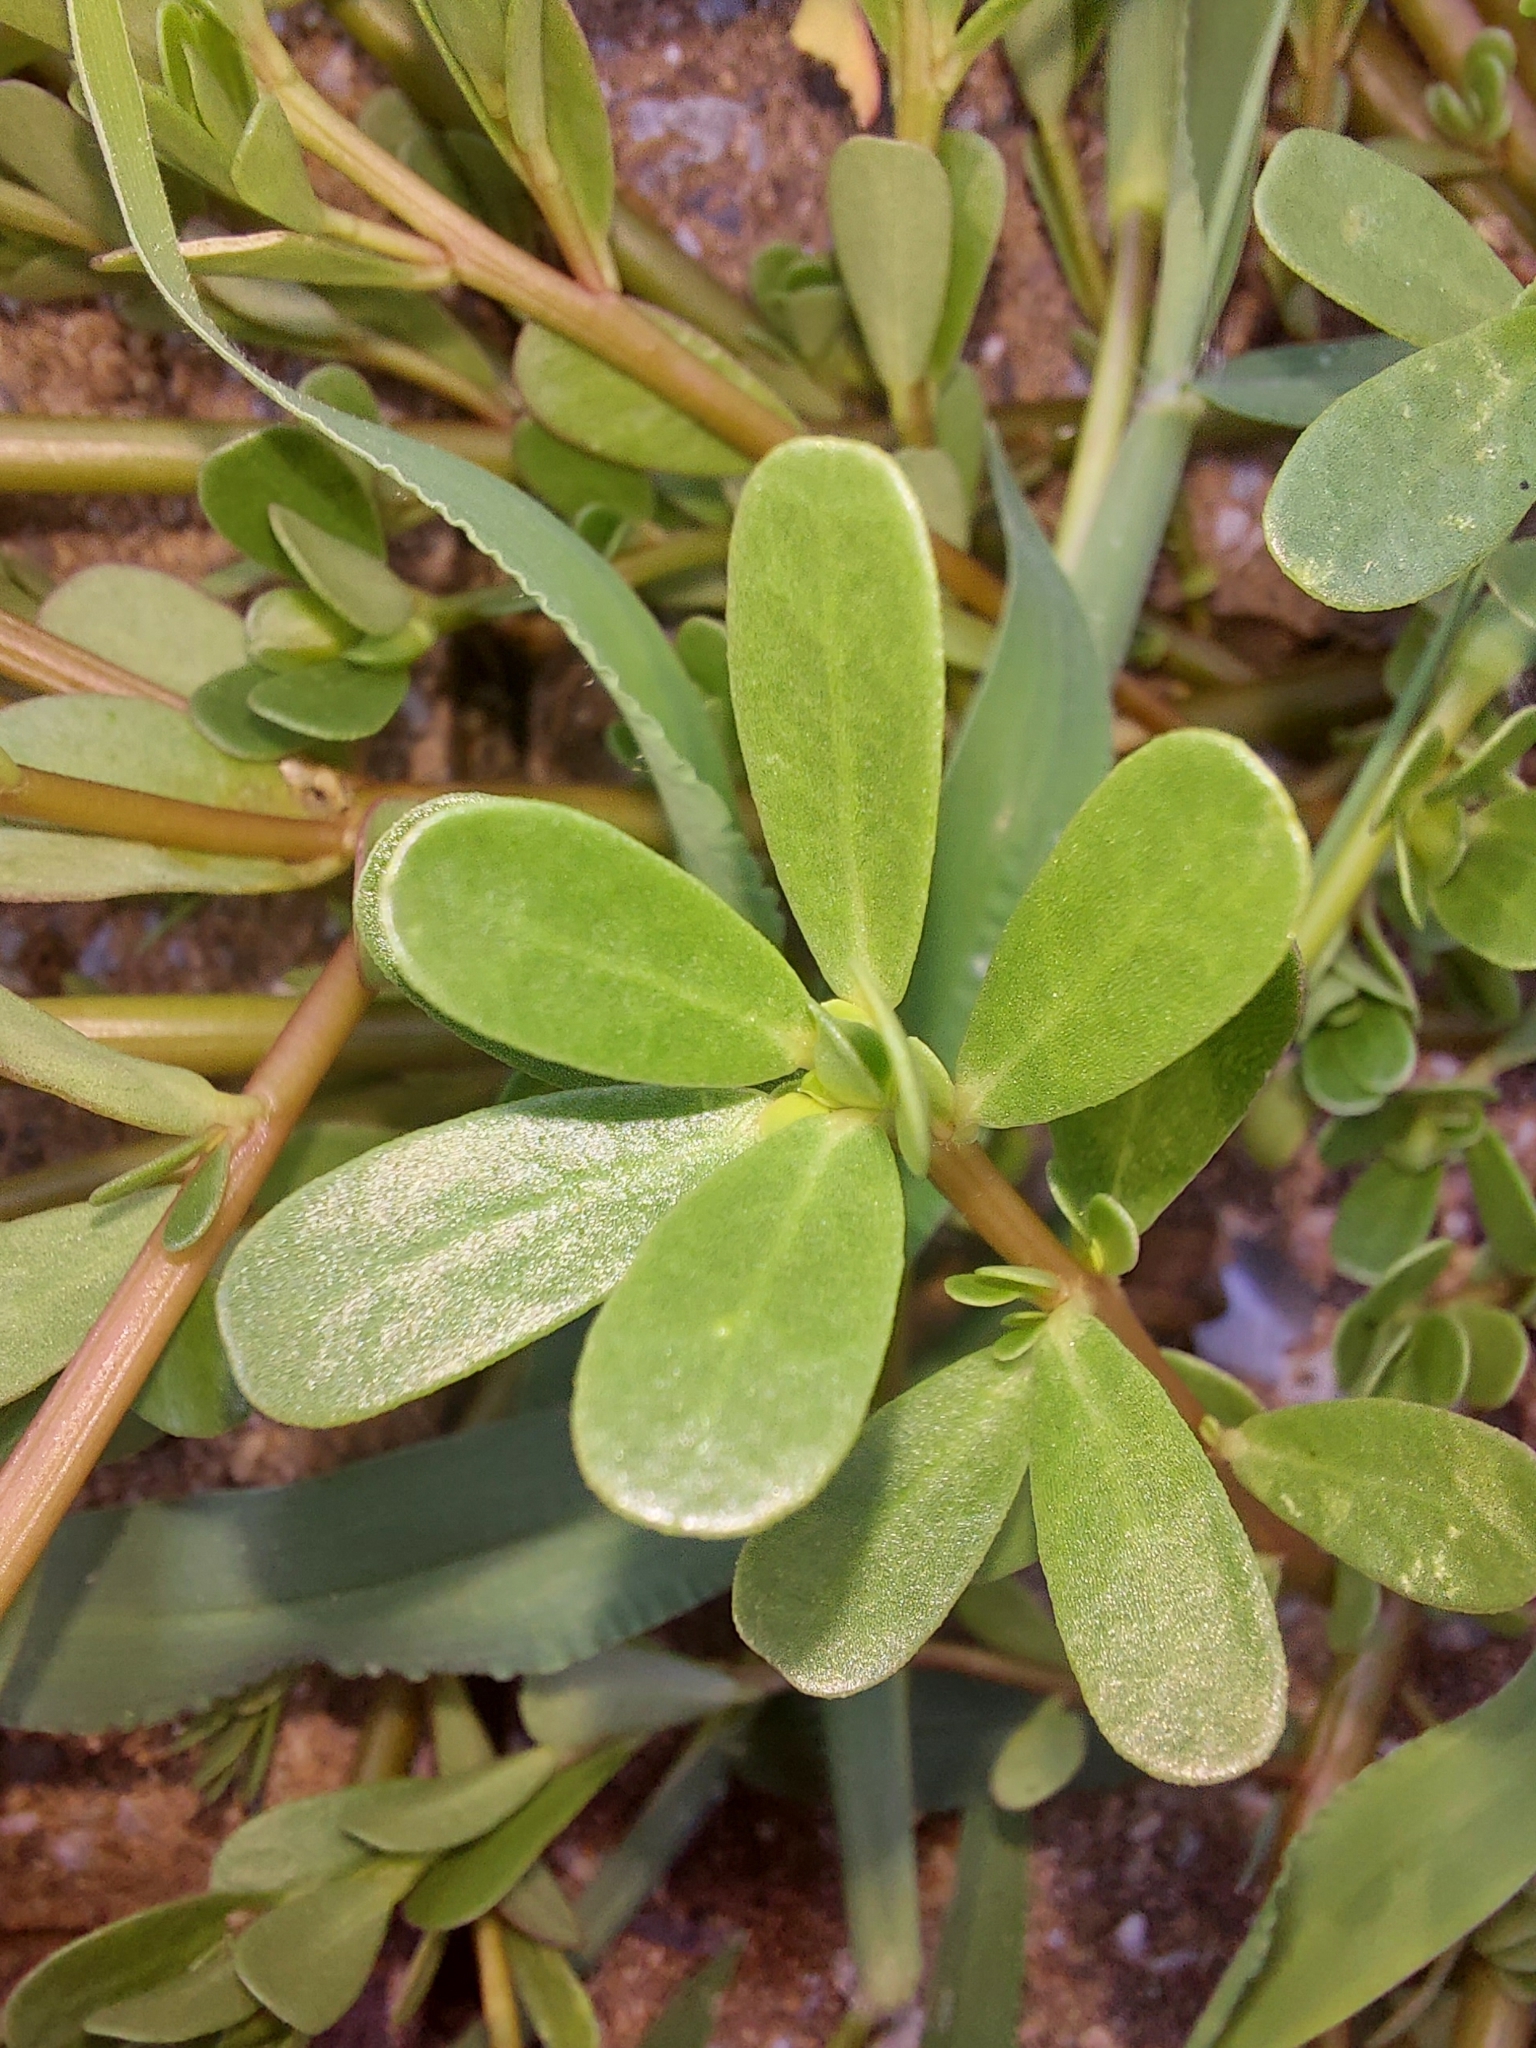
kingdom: Plantae
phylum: Tracheophyta
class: Magnoliopsida
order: Caryophyllales
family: Portulacaceae
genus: Portulaca
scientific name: Portulaca oleracea
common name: Common purslane
